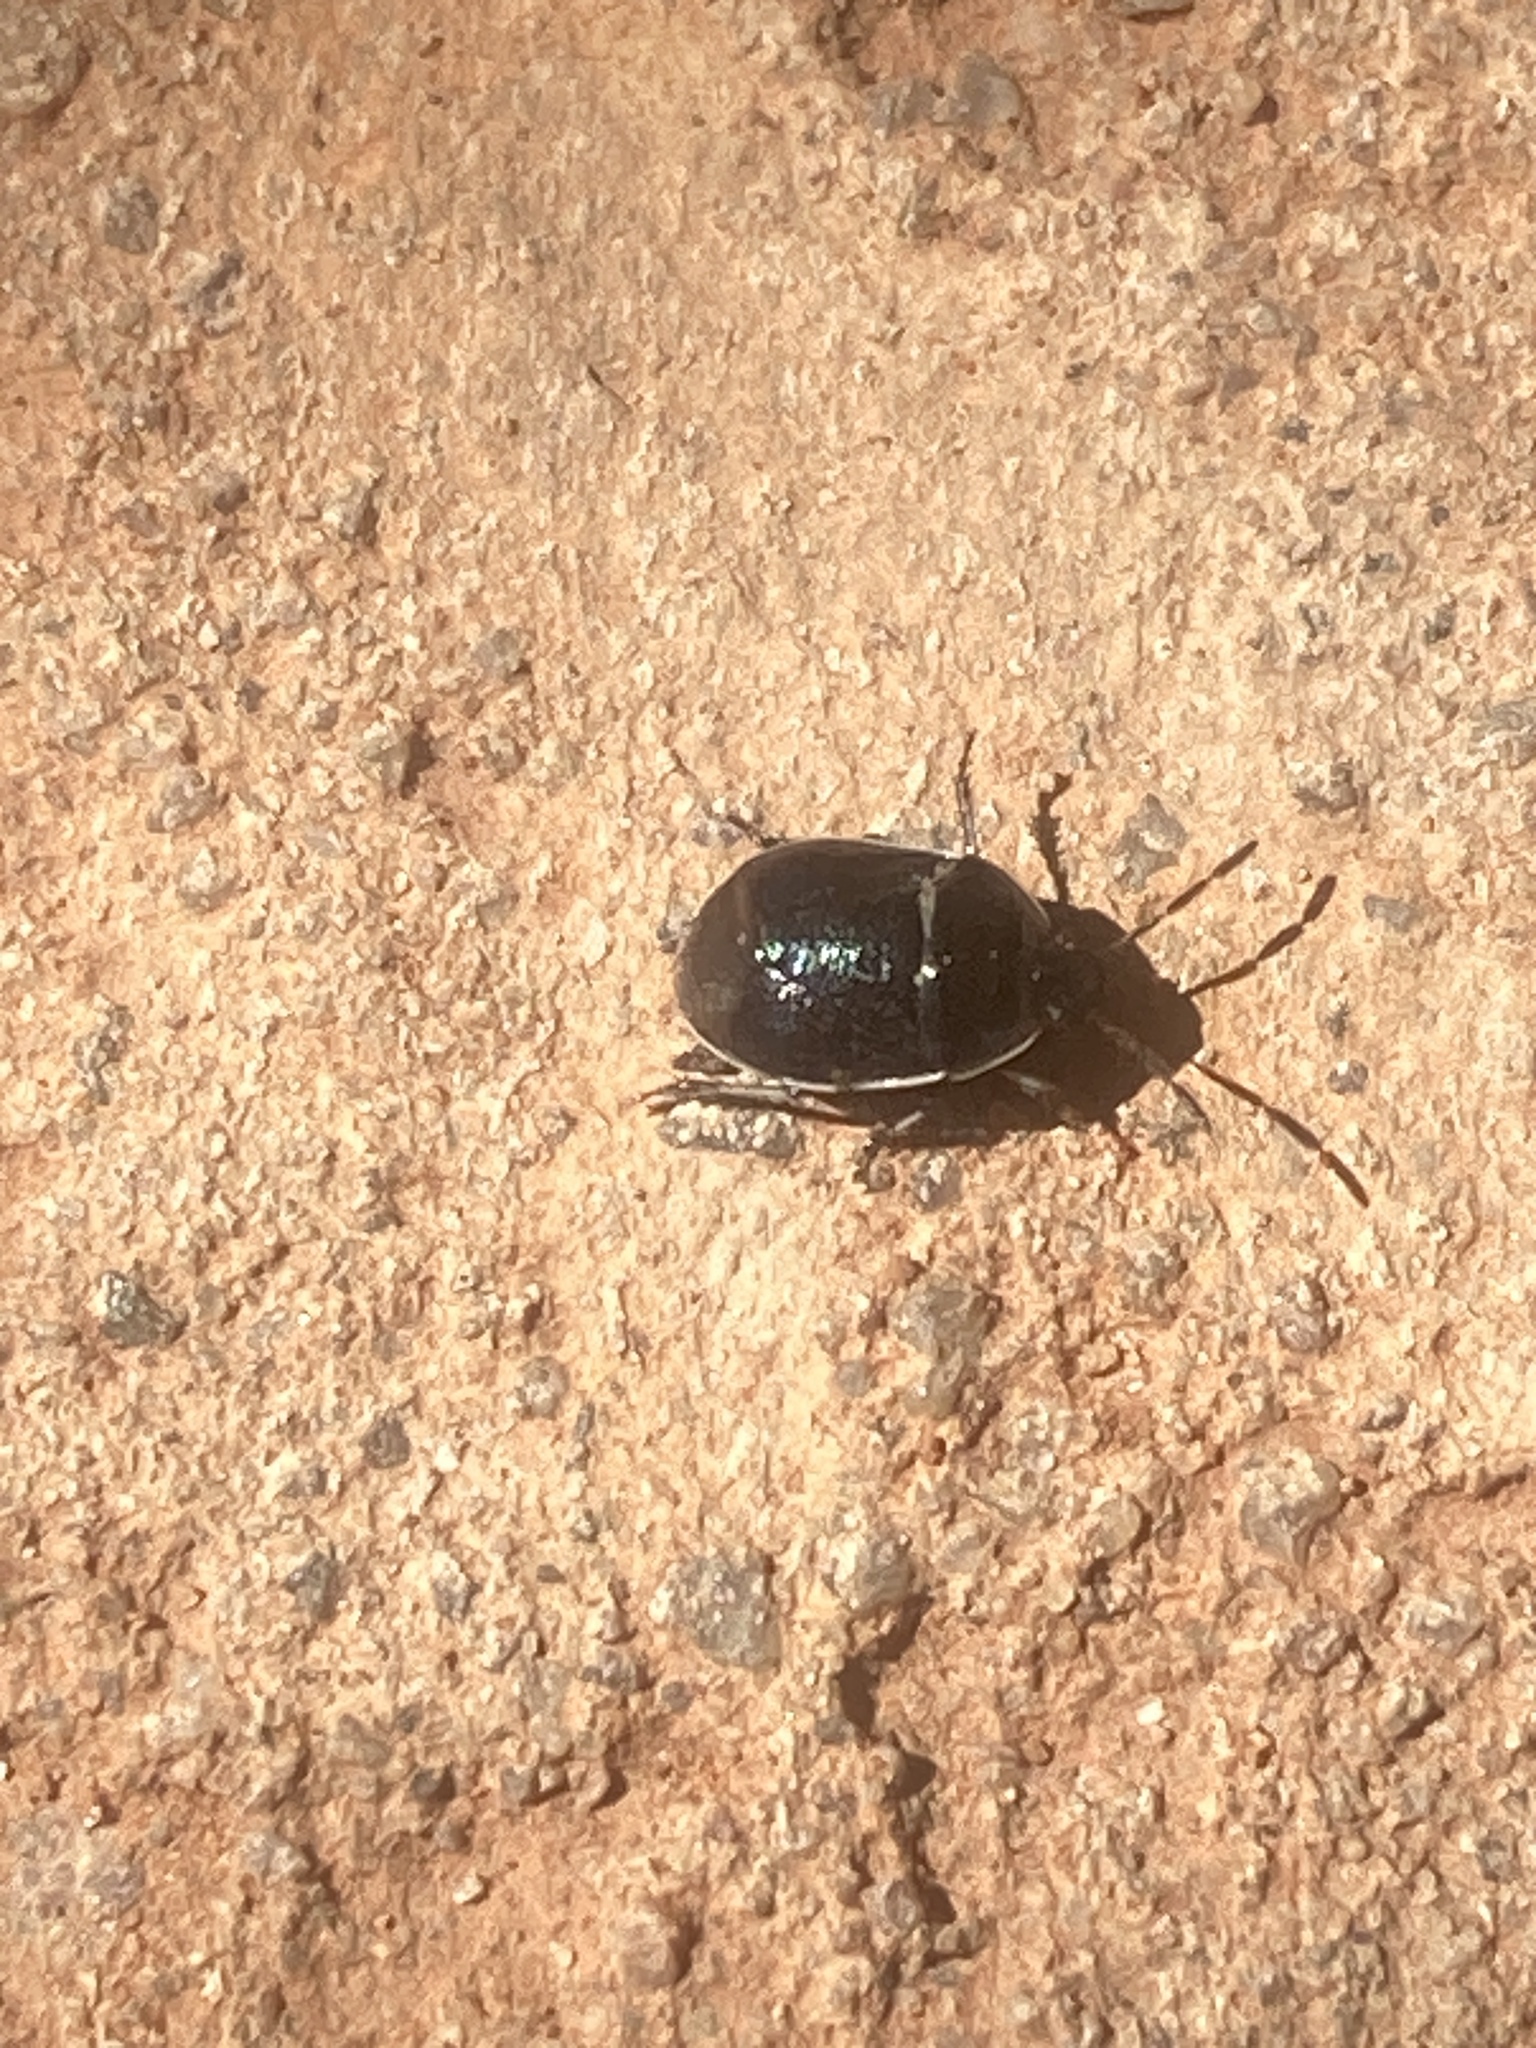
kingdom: Animalia
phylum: Arthropoda
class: Insecta
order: Hemiptera
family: Cydnidae
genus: Sehirus
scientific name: Sehirus cinctus
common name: White-margined burrower bug
